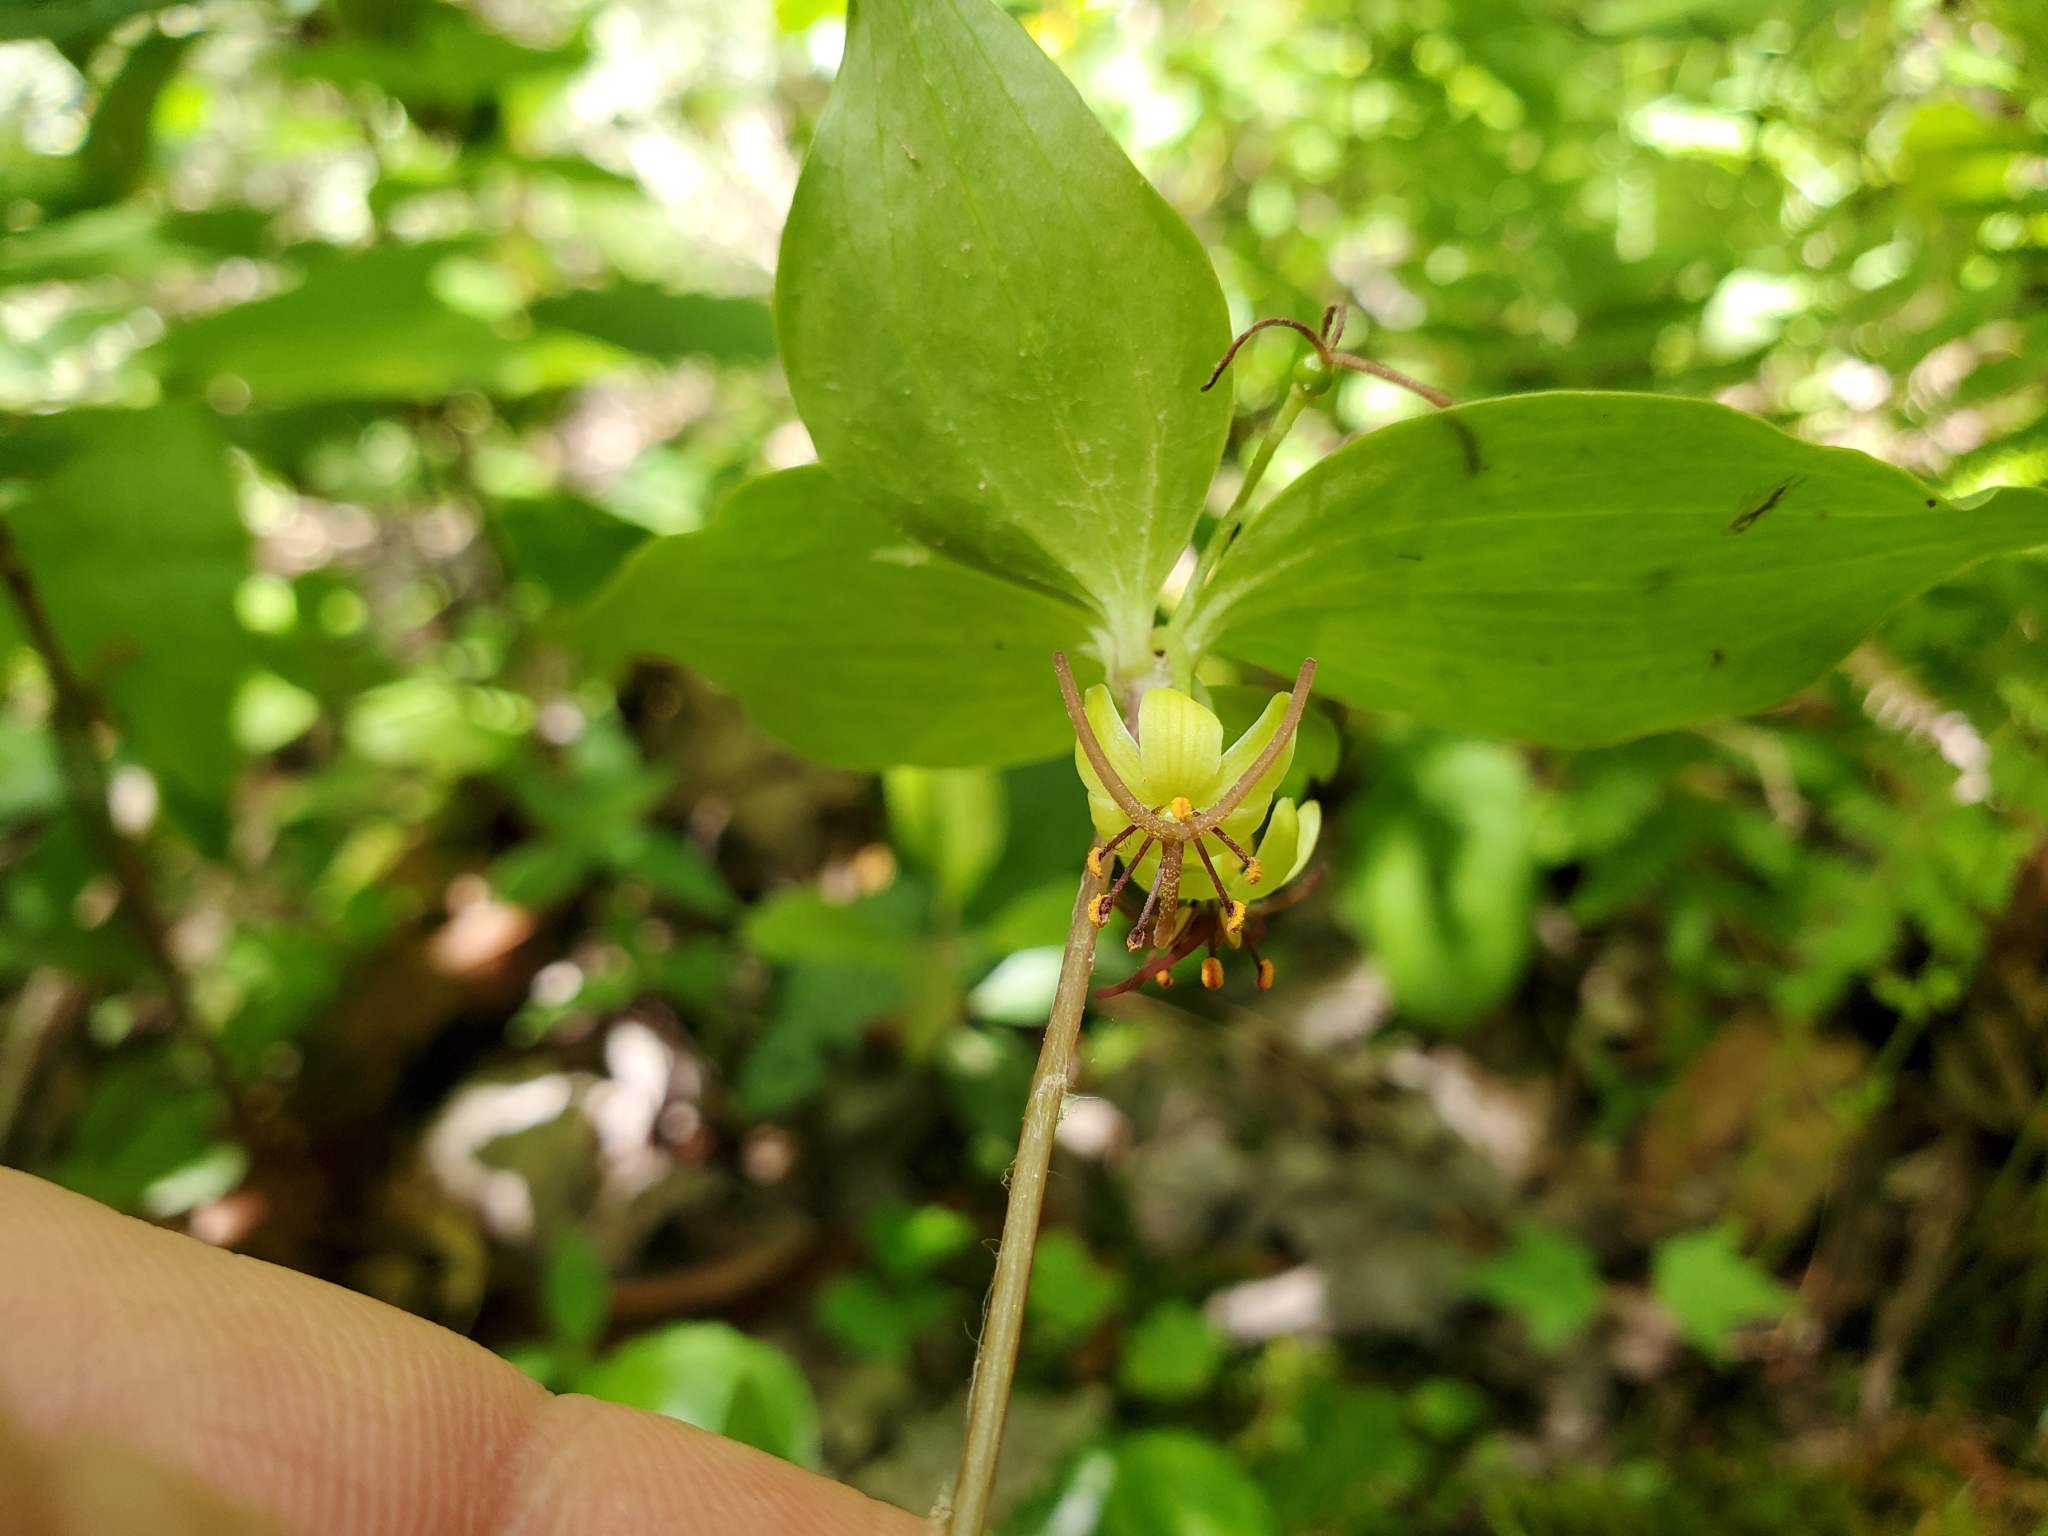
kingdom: Plantae
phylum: Tracheophyta
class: Liliopsida
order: Liliales
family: Liliaceae
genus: Medeola
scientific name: Medeola virginiana
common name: Indian cucumber-root
